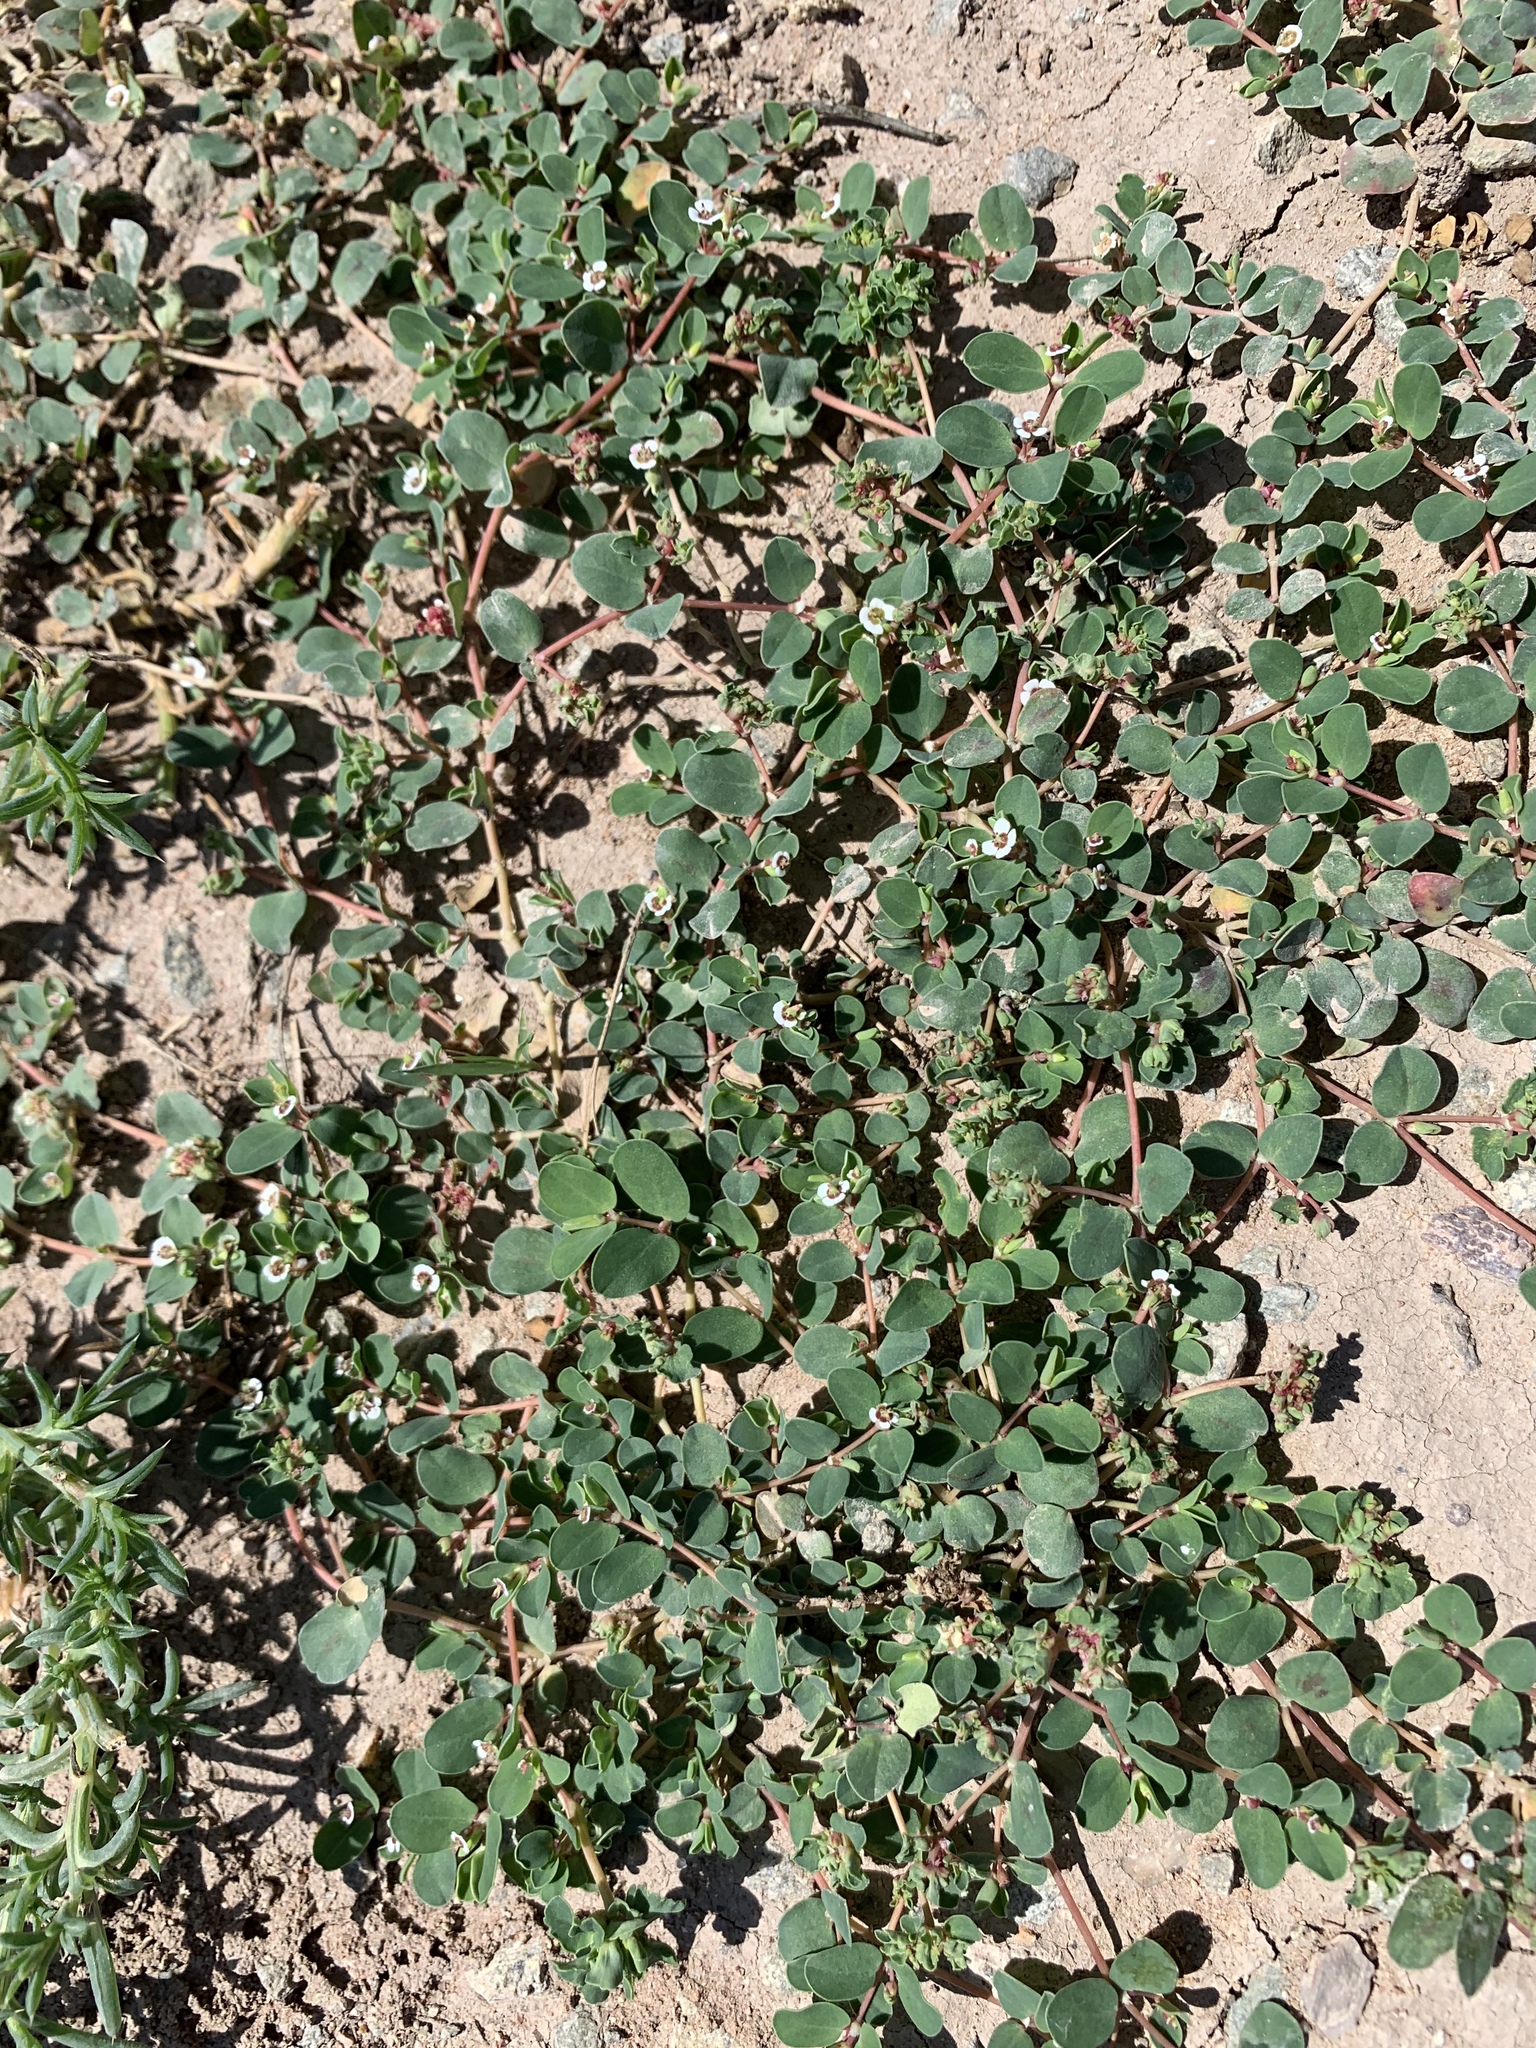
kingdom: Plantae
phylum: Tracheophyta
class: Magnoliopsida
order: Malpighiales
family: Euphorbiaceae
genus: Euphorbia
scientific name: Euphorbia albomarginata
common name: Whitemargin sandmat
